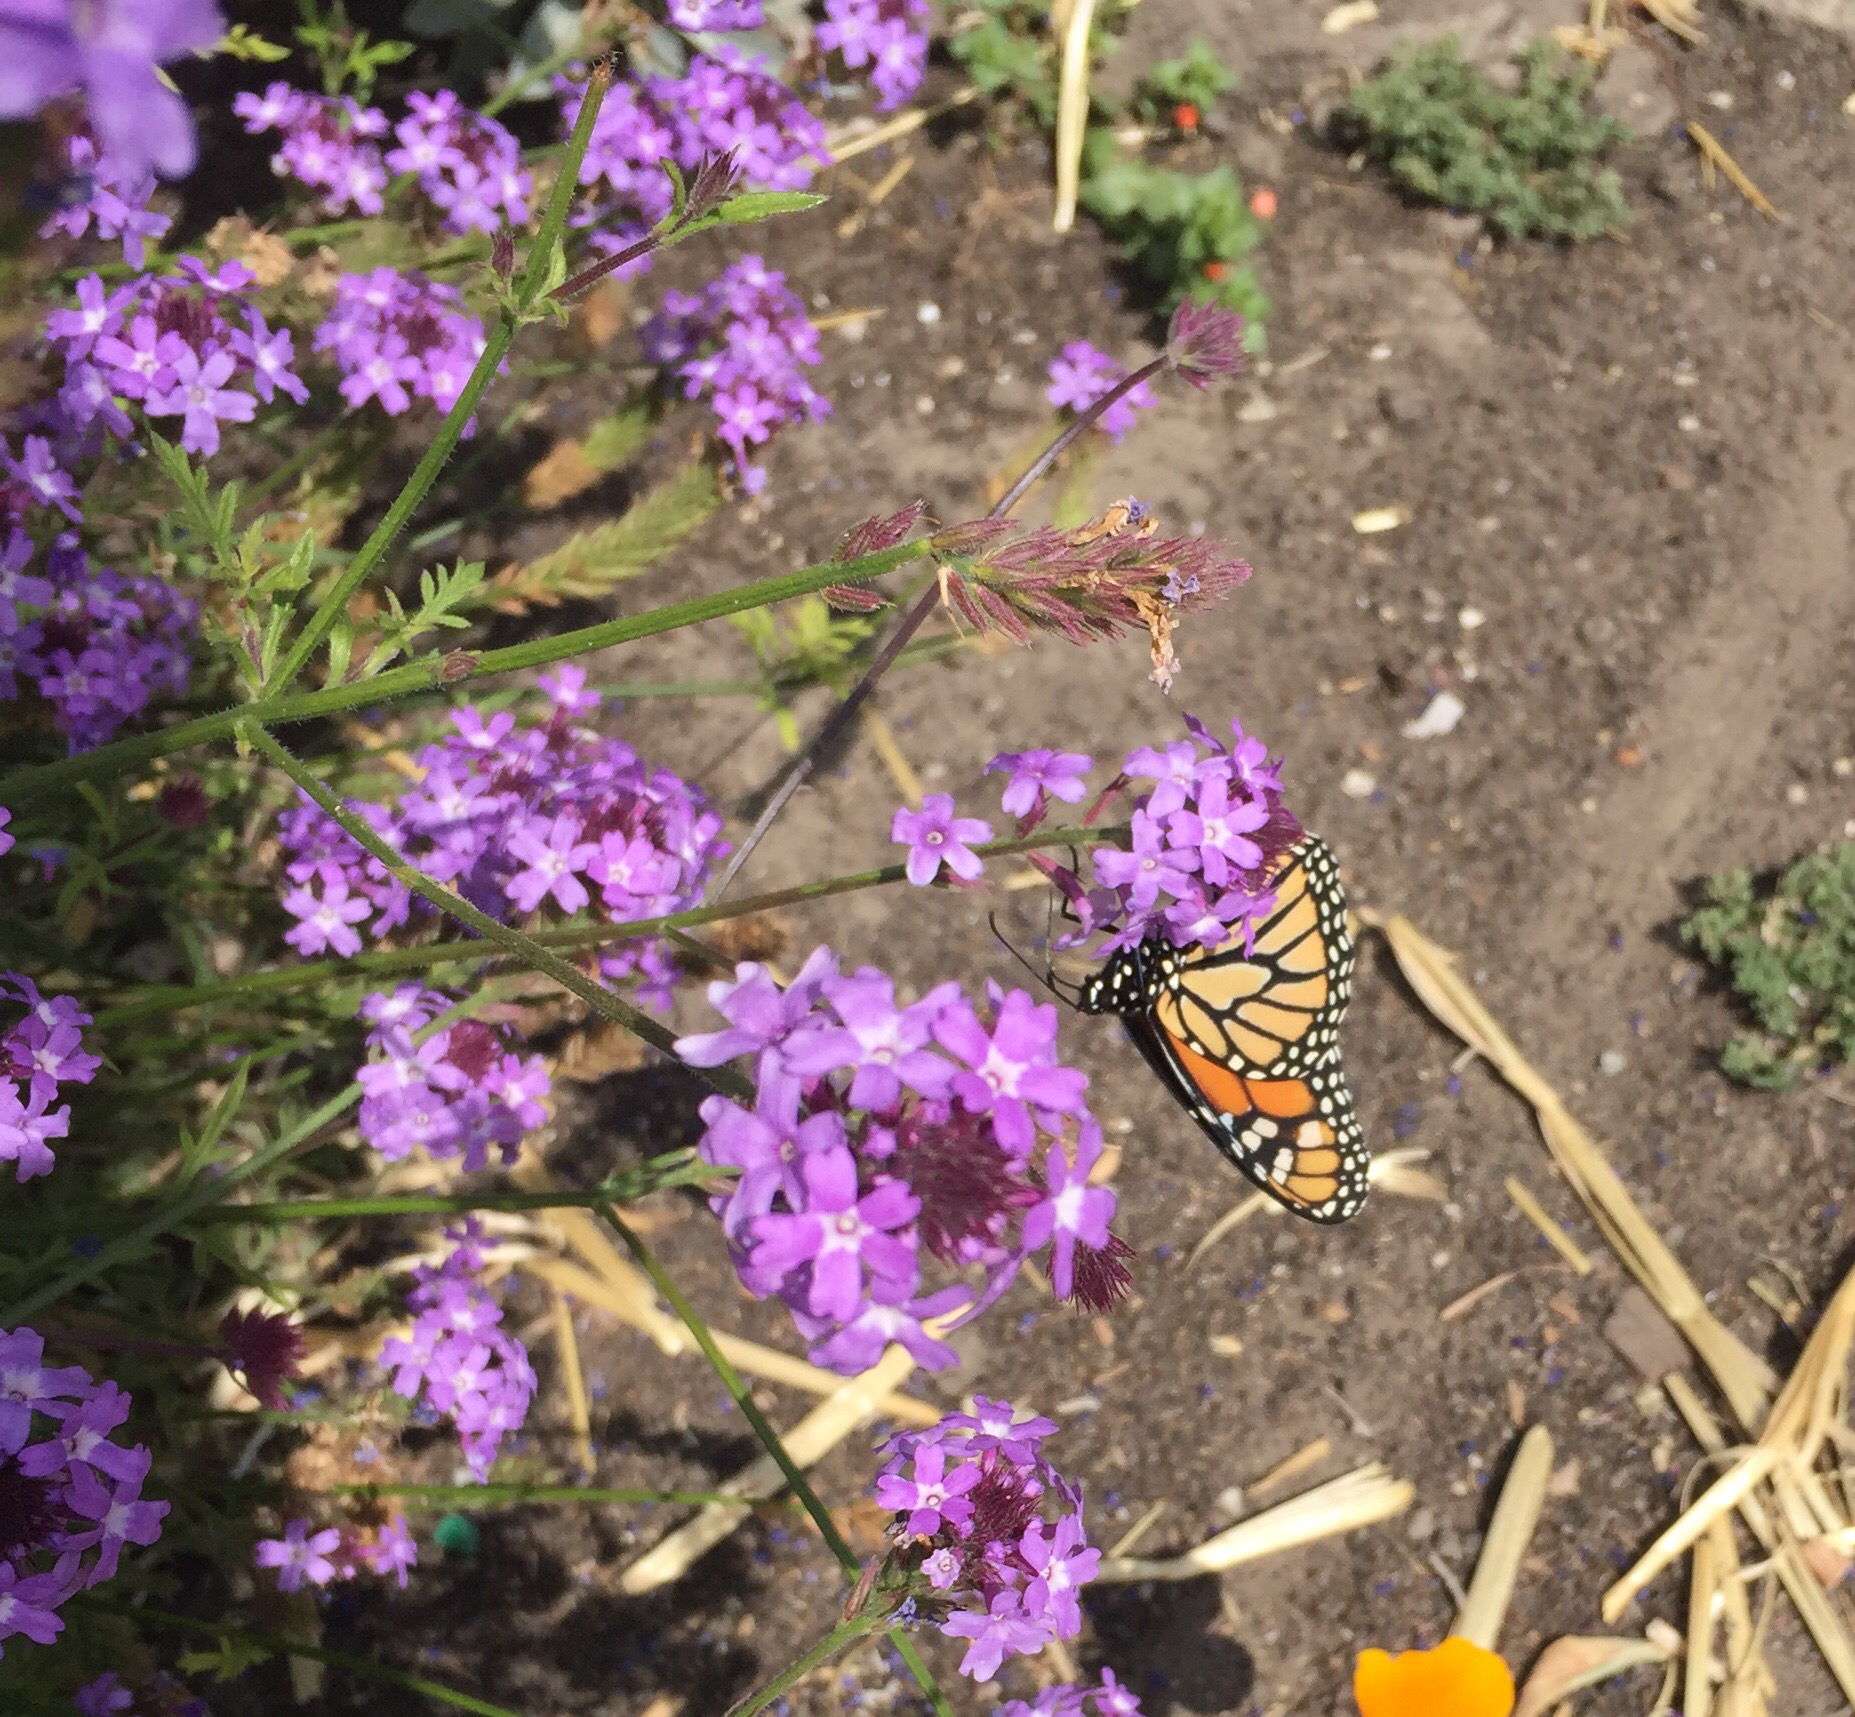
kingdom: Animalia
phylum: Arthropoda
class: Insecta
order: Lepidoptera
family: Nymphalidae
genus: Danaus
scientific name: Danaus plexippus
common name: Monarch
